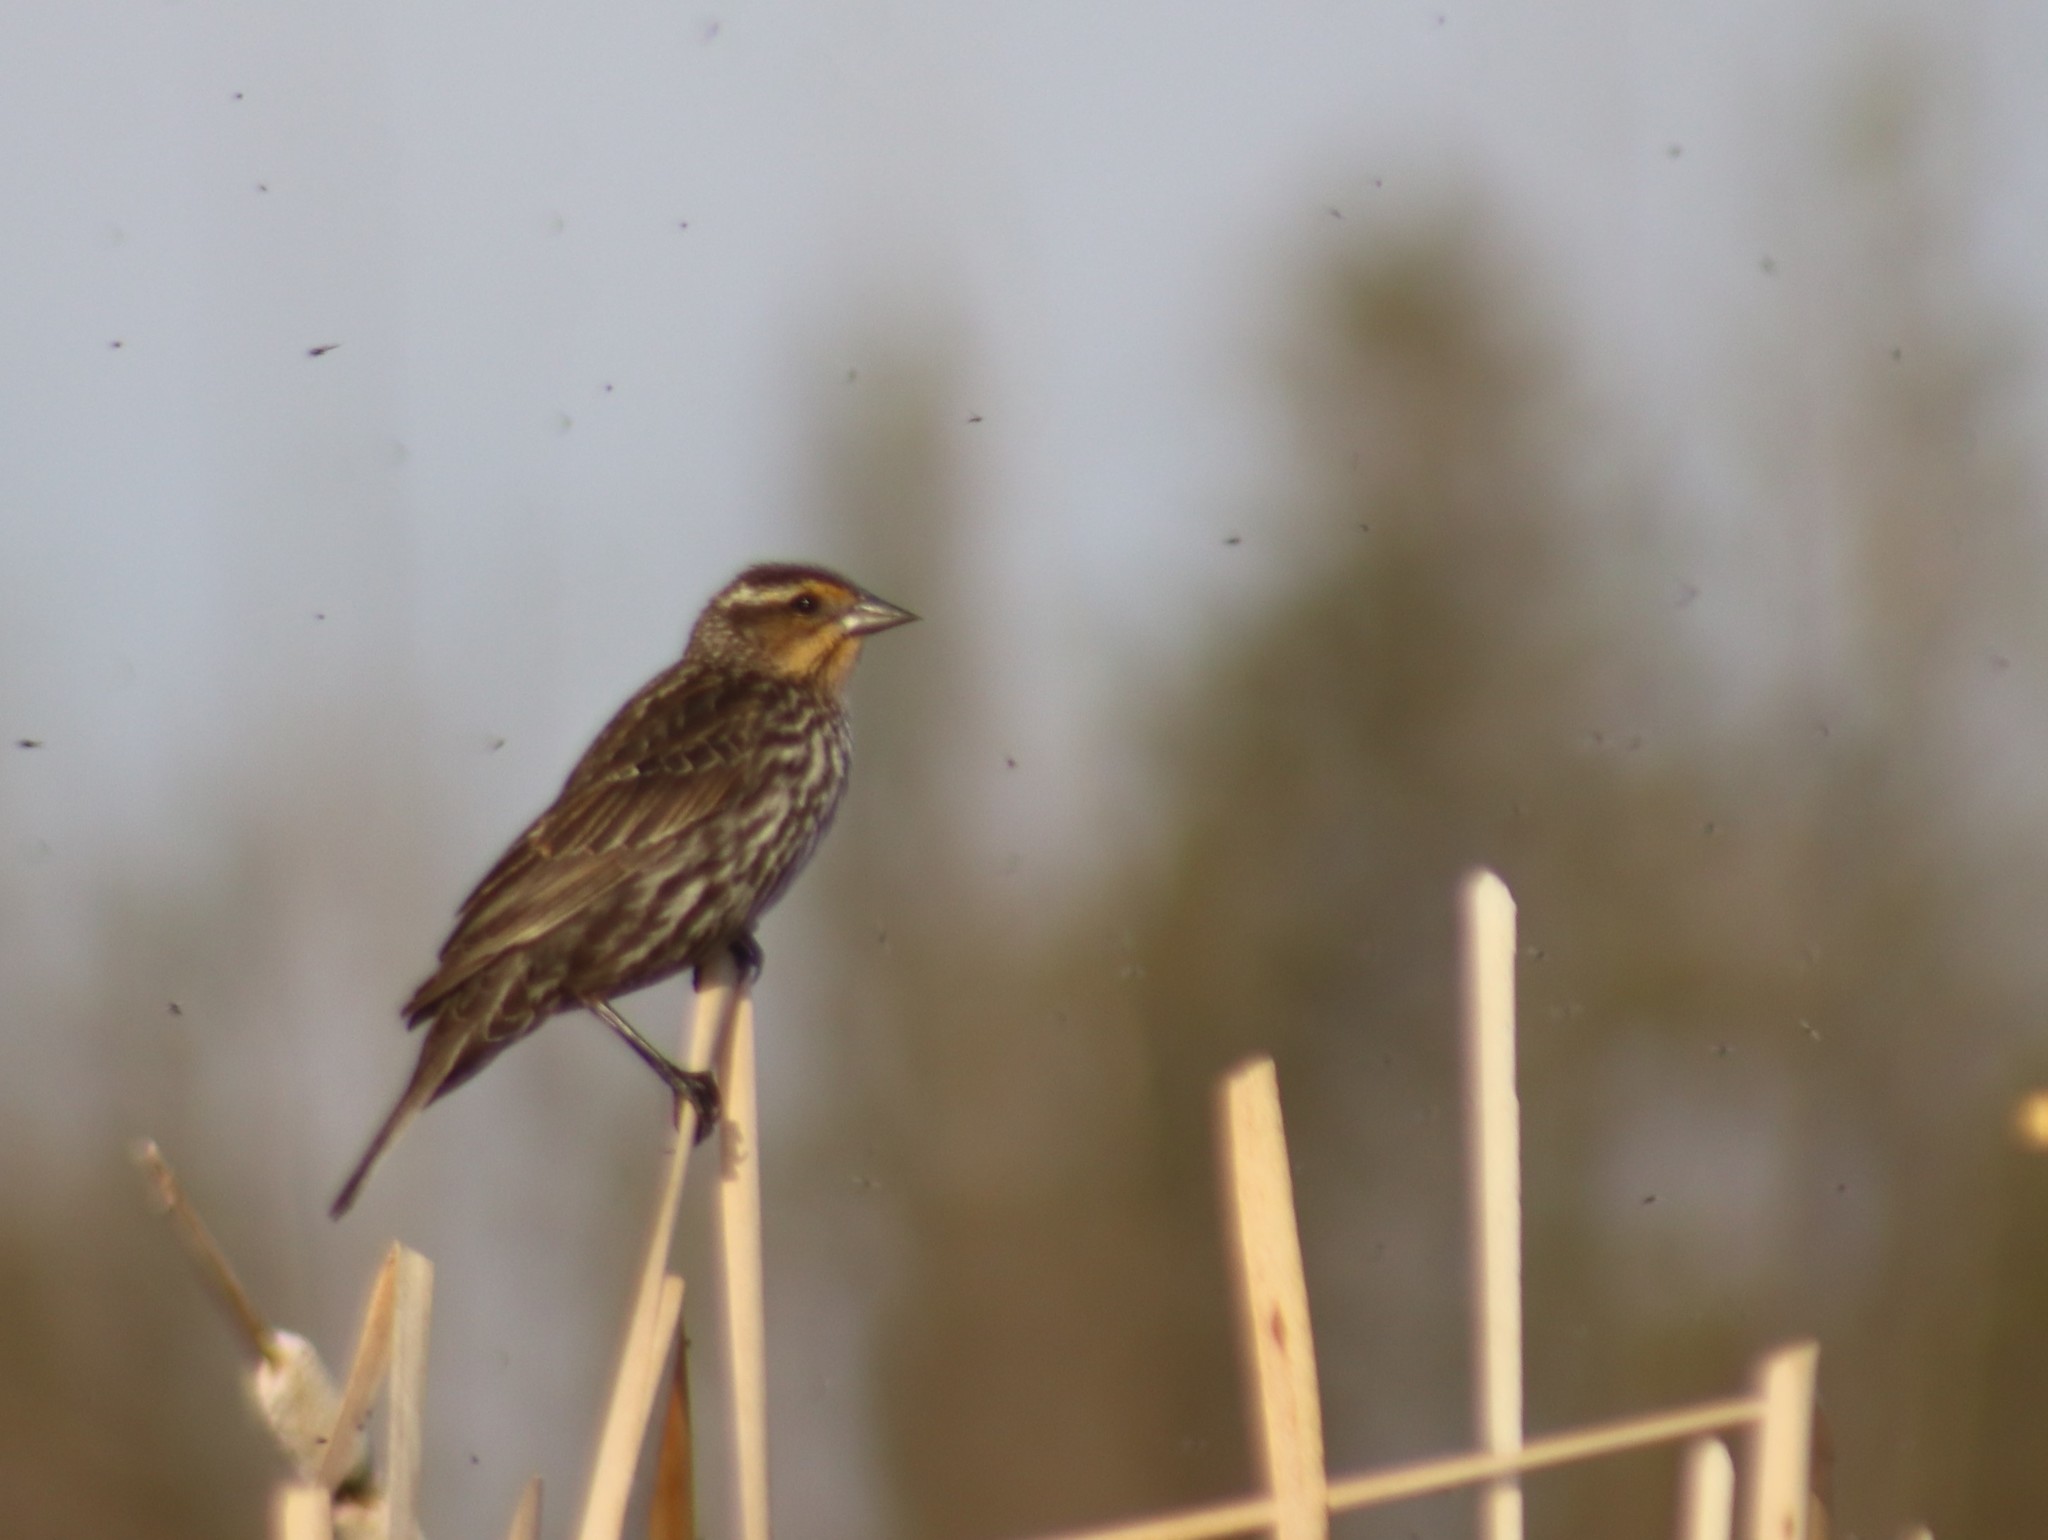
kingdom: Animalia
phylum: Chordata
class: Aves
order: Passeriformes
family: Icteridae
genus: Agelaius
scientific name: Agelaius phoeniceus
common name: Red-winged blackbird
